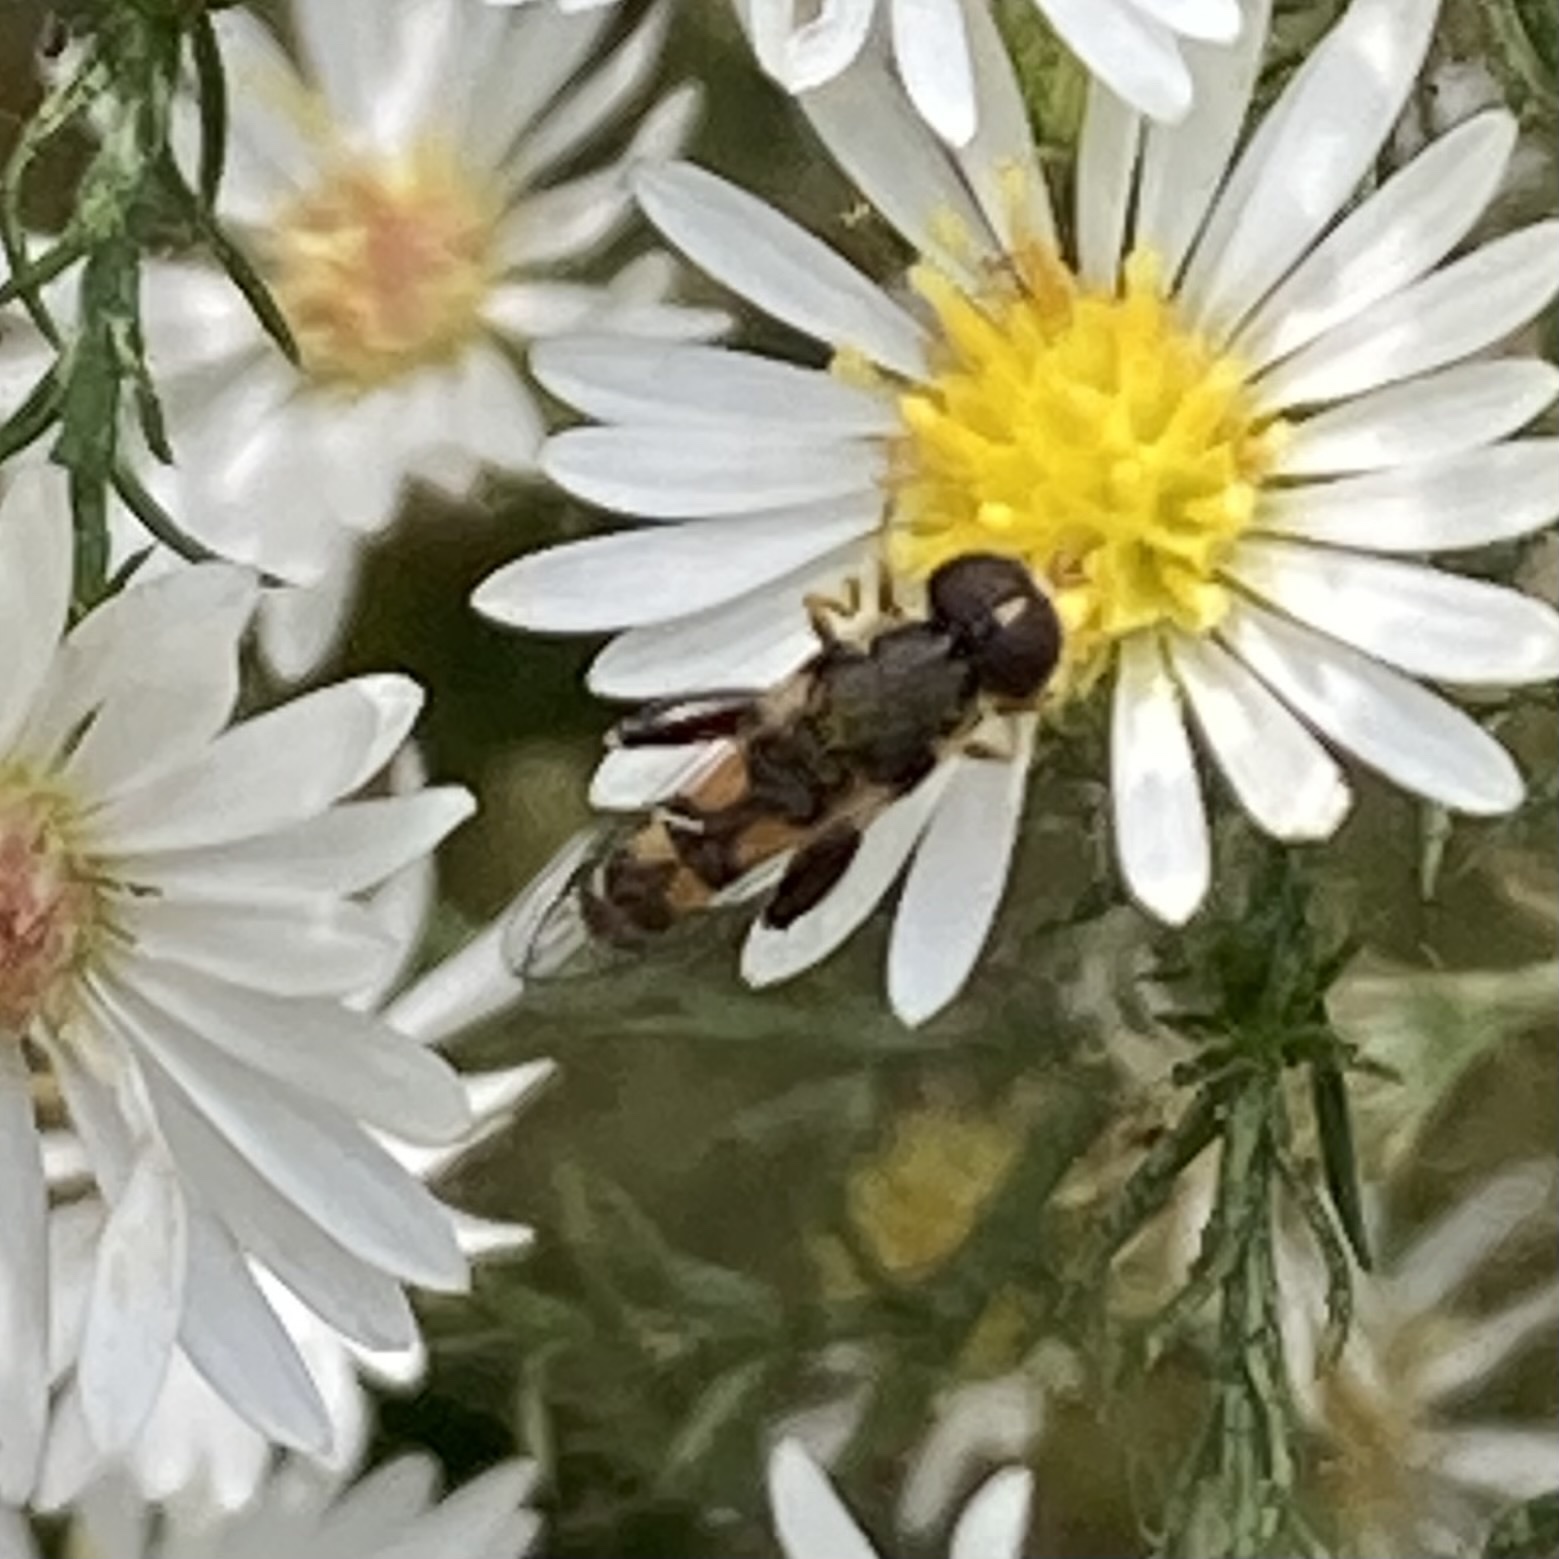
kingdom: Animalia
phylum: Arthropoda
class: Insecta
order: Diptera
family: Syrphidae
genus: Syritta
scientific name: Syritta pipiens
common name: Hover fly
